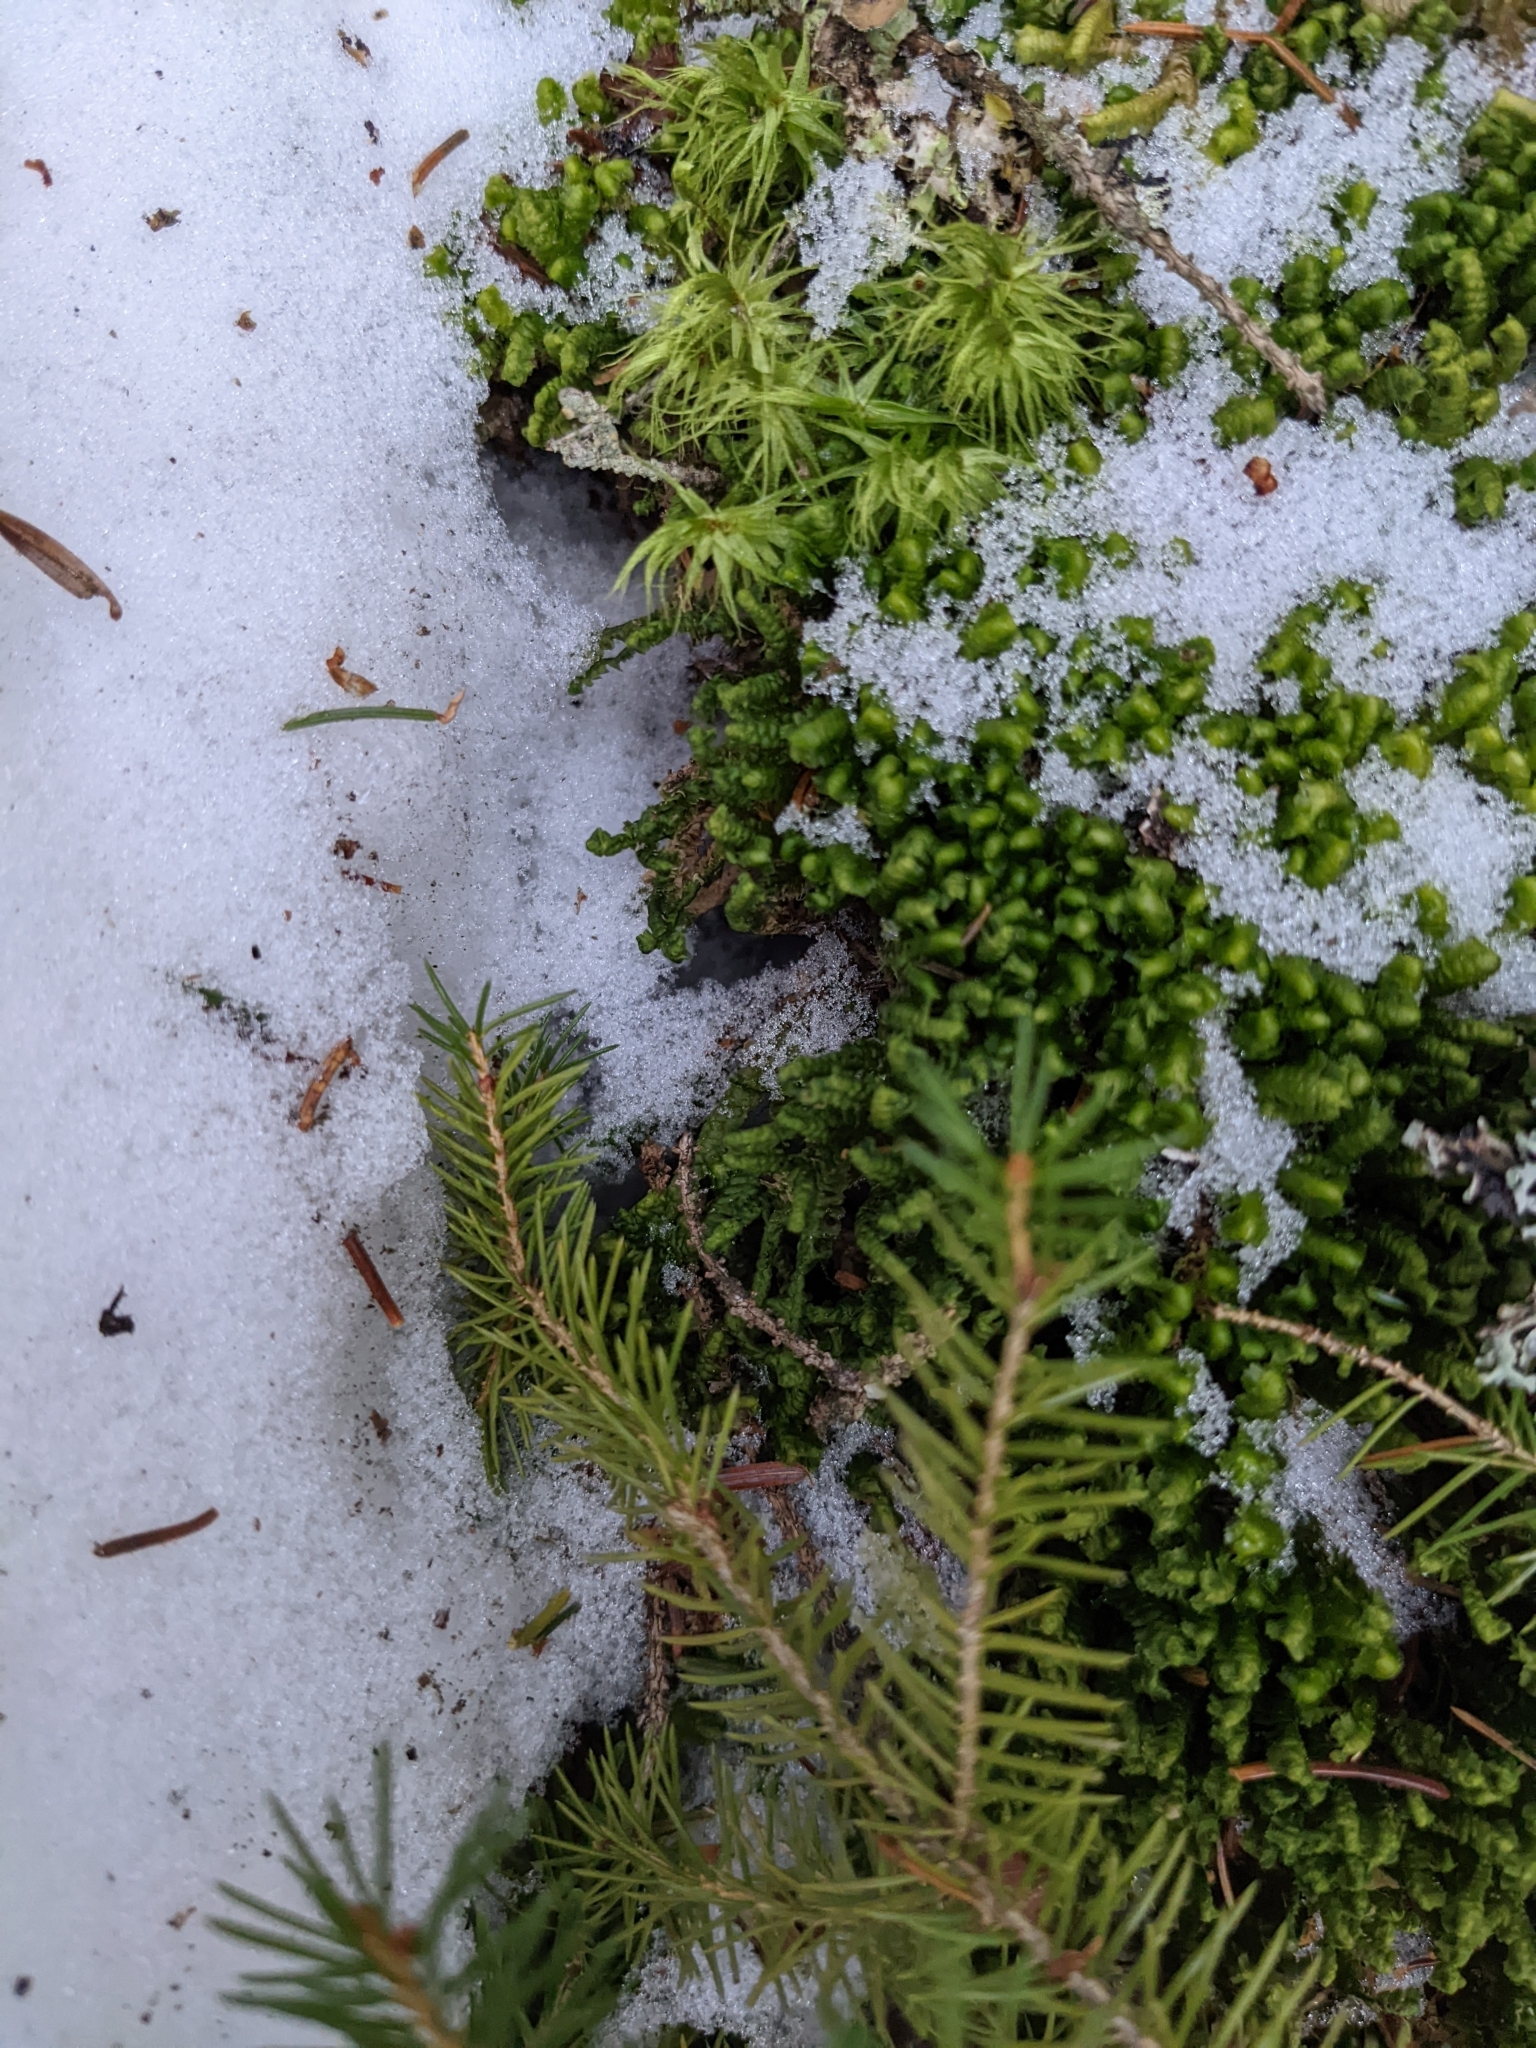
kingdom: Plantae
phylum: Marchantiophyta
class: Jungermanniopsida
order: Jungermanniales
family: Lepidoziaceae
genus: Bazzania
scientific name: Bazzania trilobata
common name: Three-lobed whipwort
